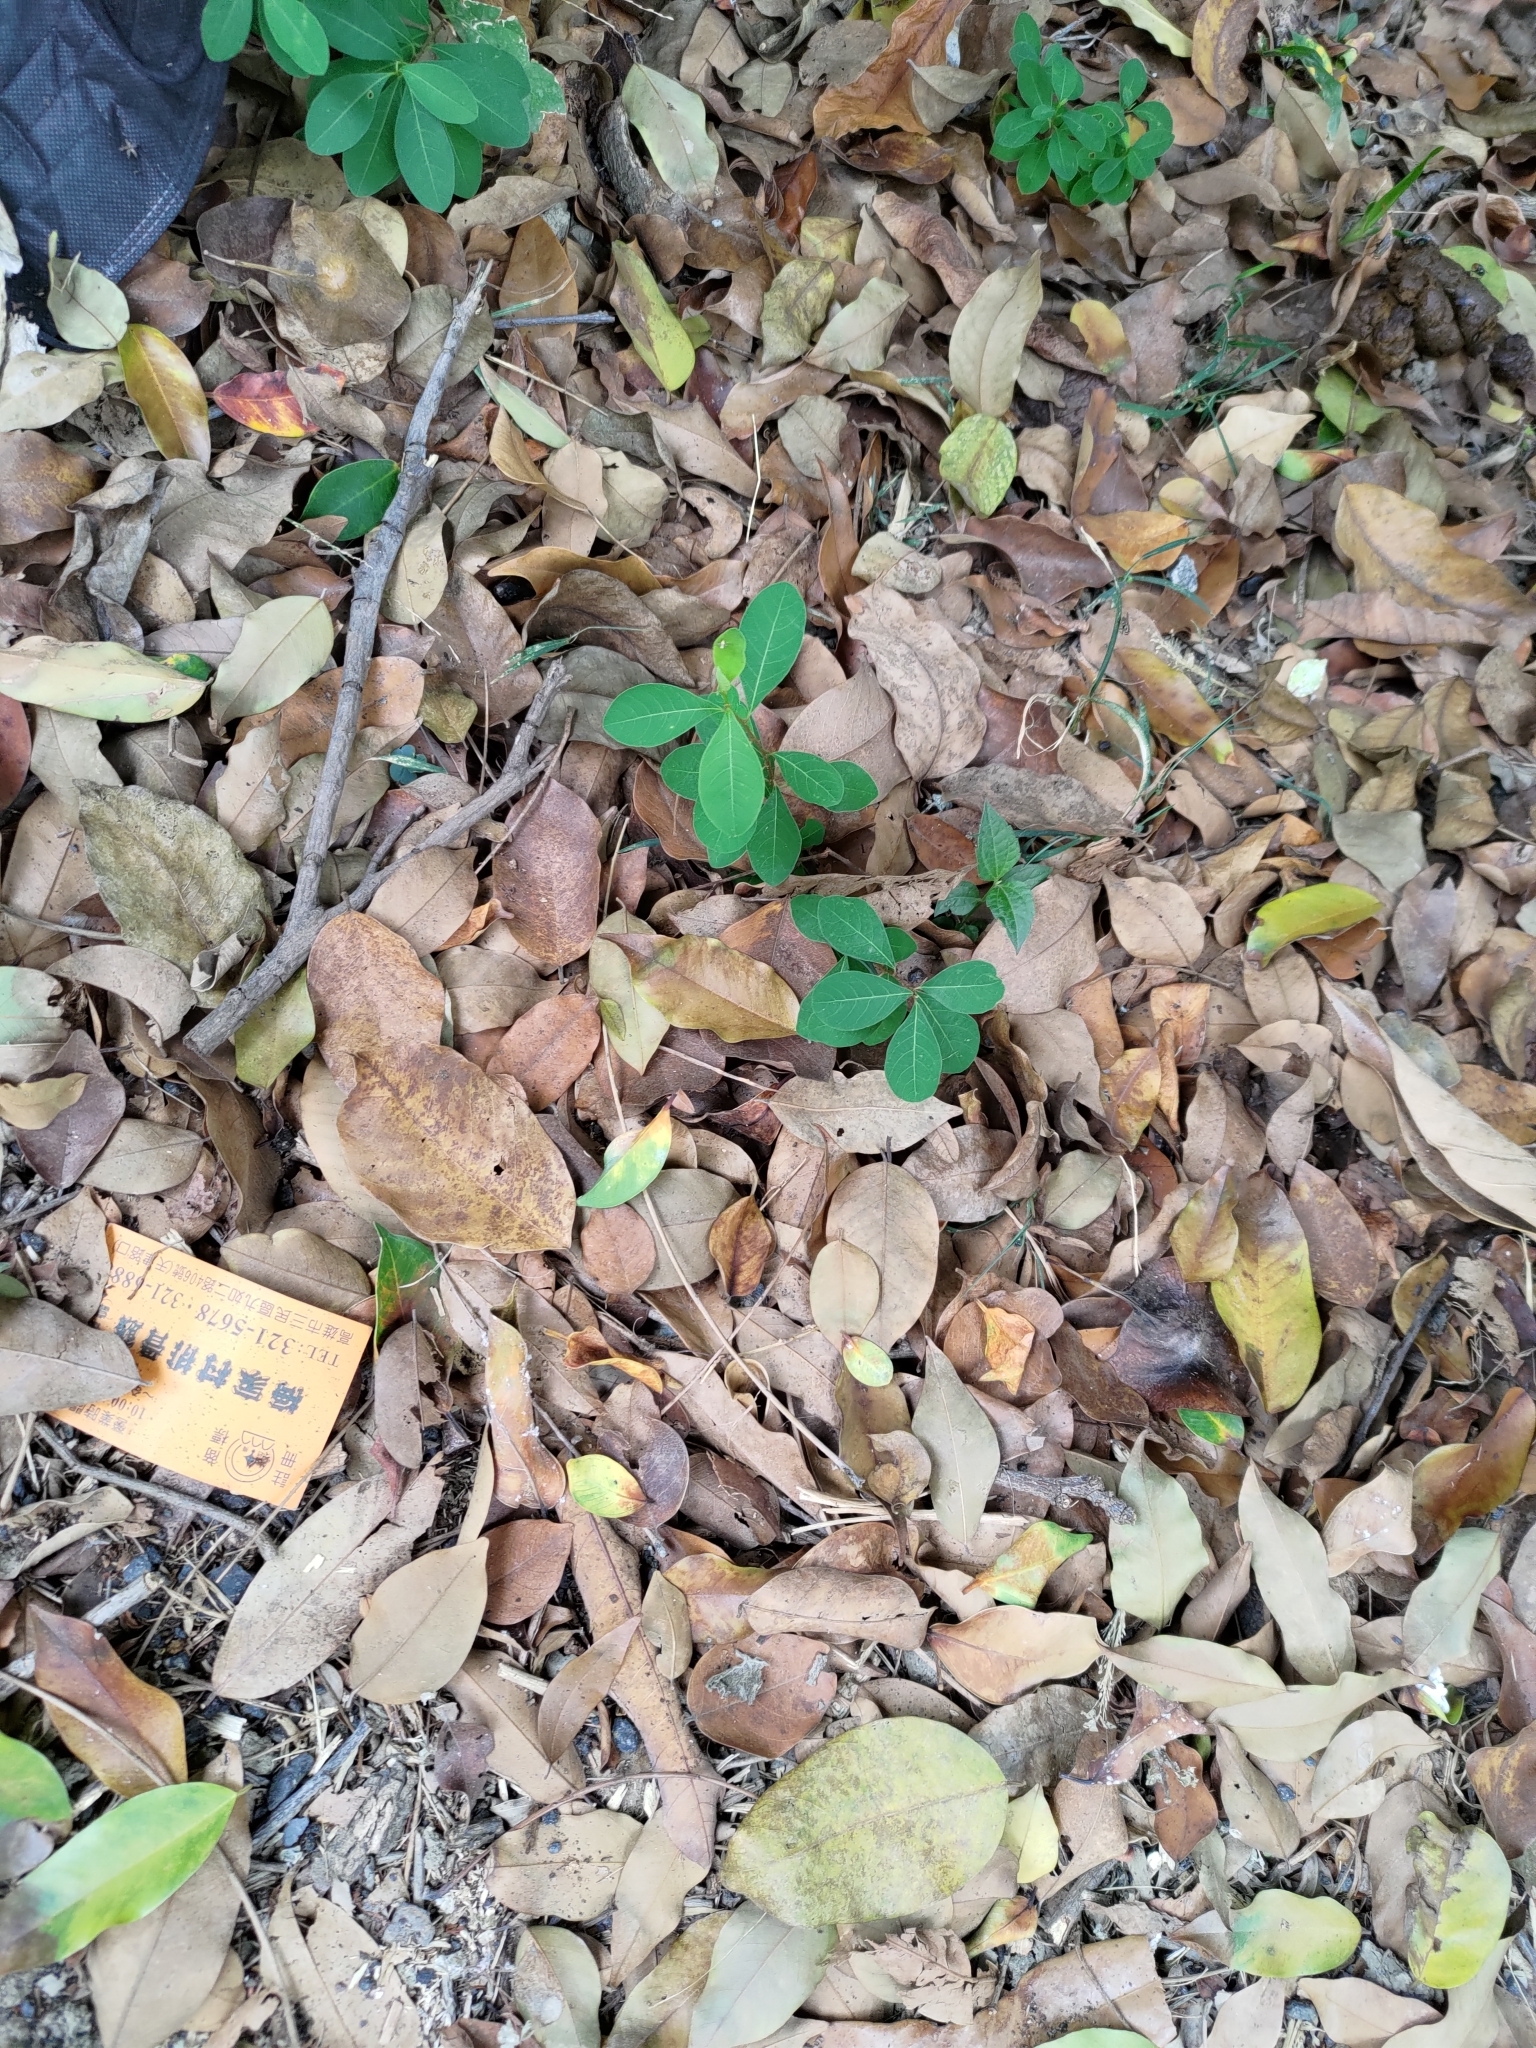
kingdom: Plantae
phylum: Tracheophyta
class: Magnoliopsida
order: Malpighiales
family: Phyllanthaceae
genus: Flueggea
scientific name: Flueggea virosa
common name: Common bushweed
